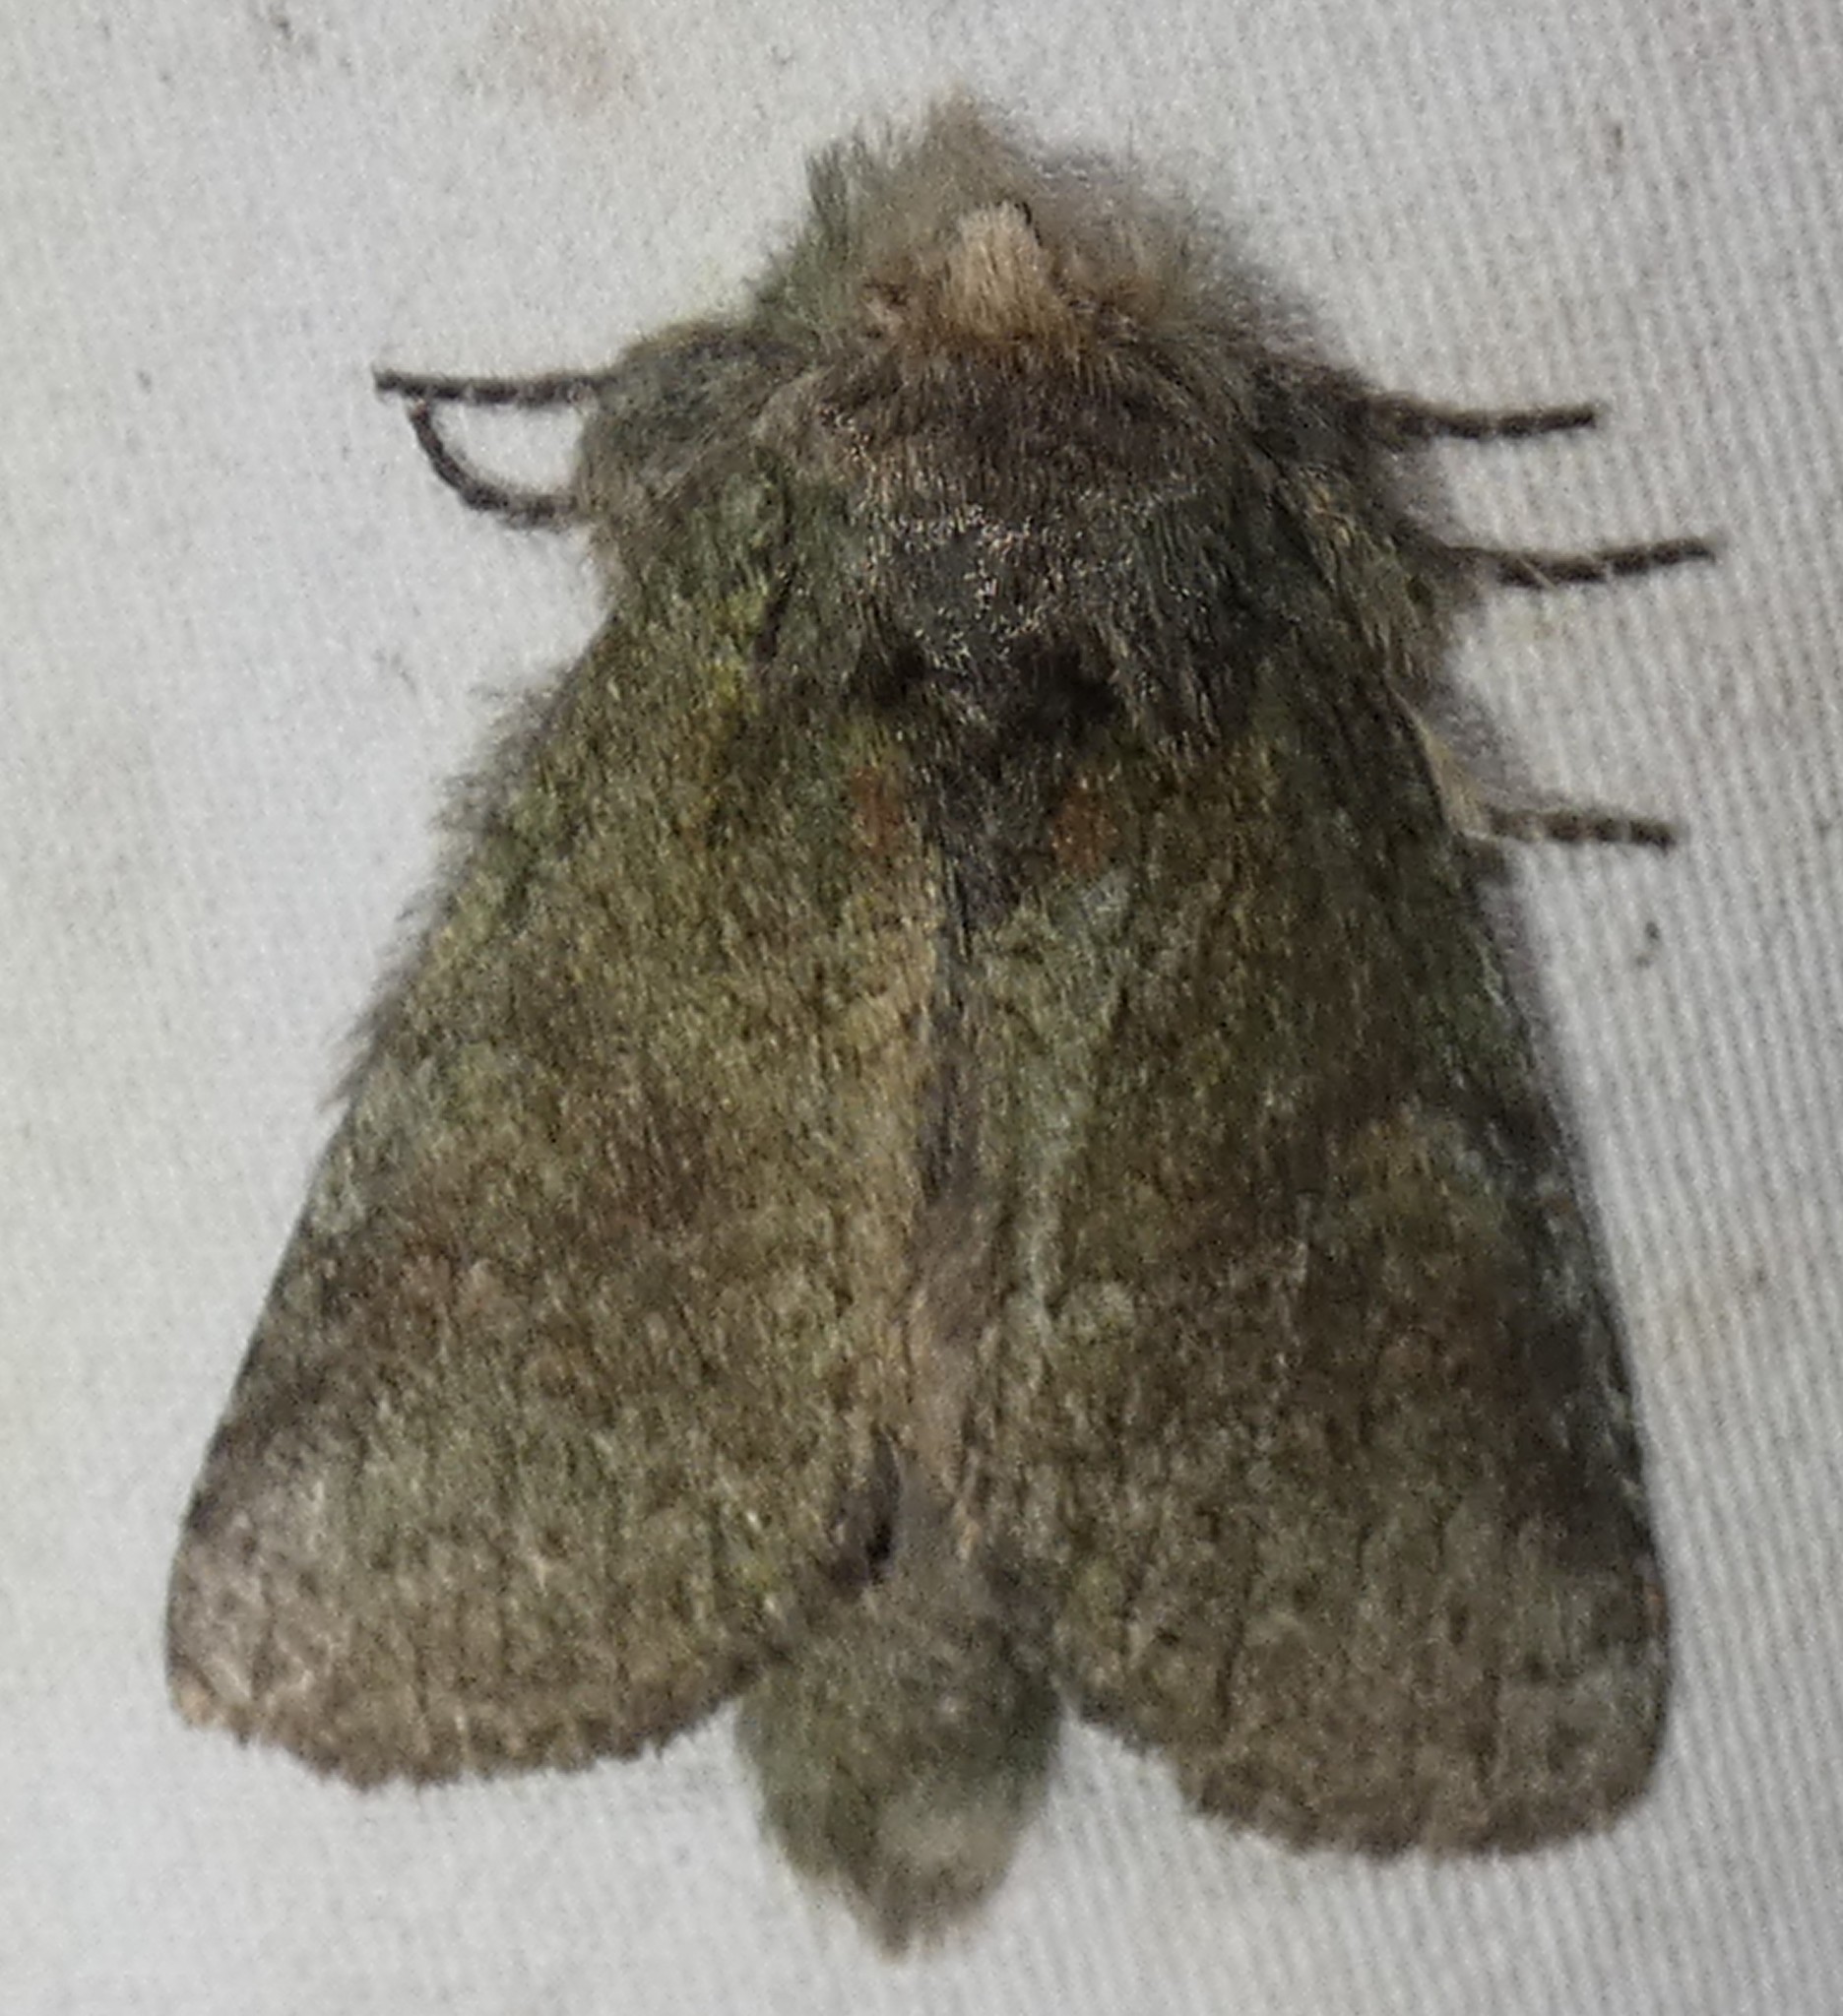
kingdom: Animalia
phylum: Arthropoda
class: Insecta
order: Lepidoptera
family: Notodontidae
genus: Disphragis
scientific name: Disphragis Cecrita guttivitta
